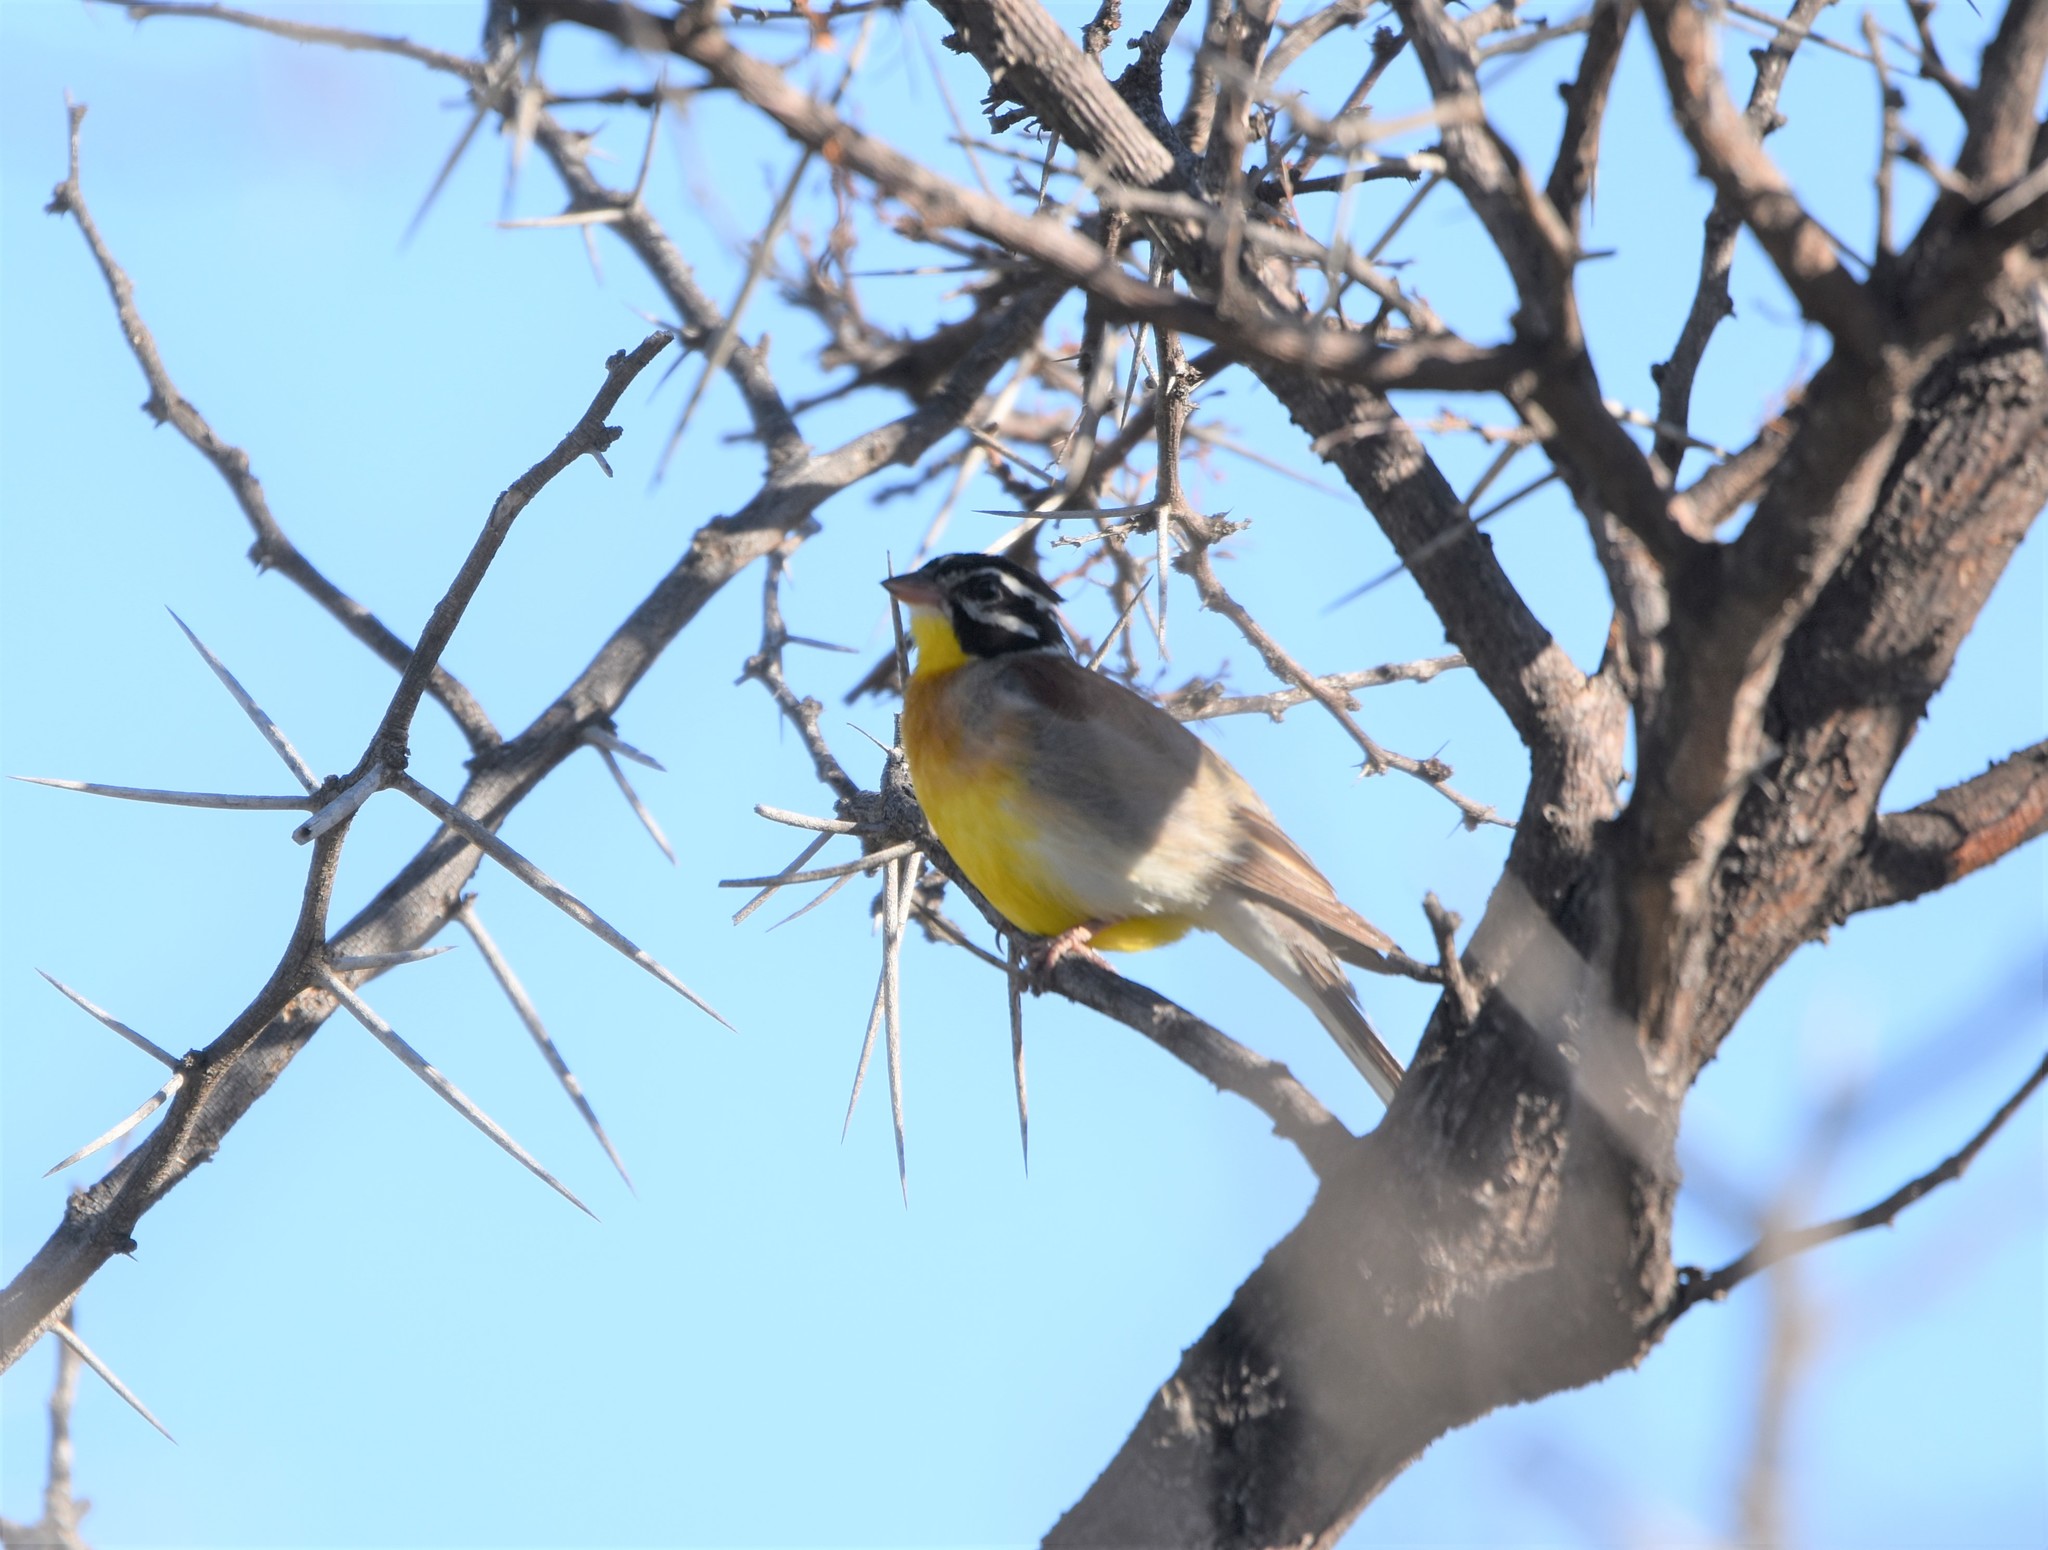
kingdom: Animalia
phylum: Chordata
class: Aves
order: Passeriformes
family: Emberizidae
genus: Emberiza
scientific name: Emberiza flaviventris
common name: Golden-breasted bunting
